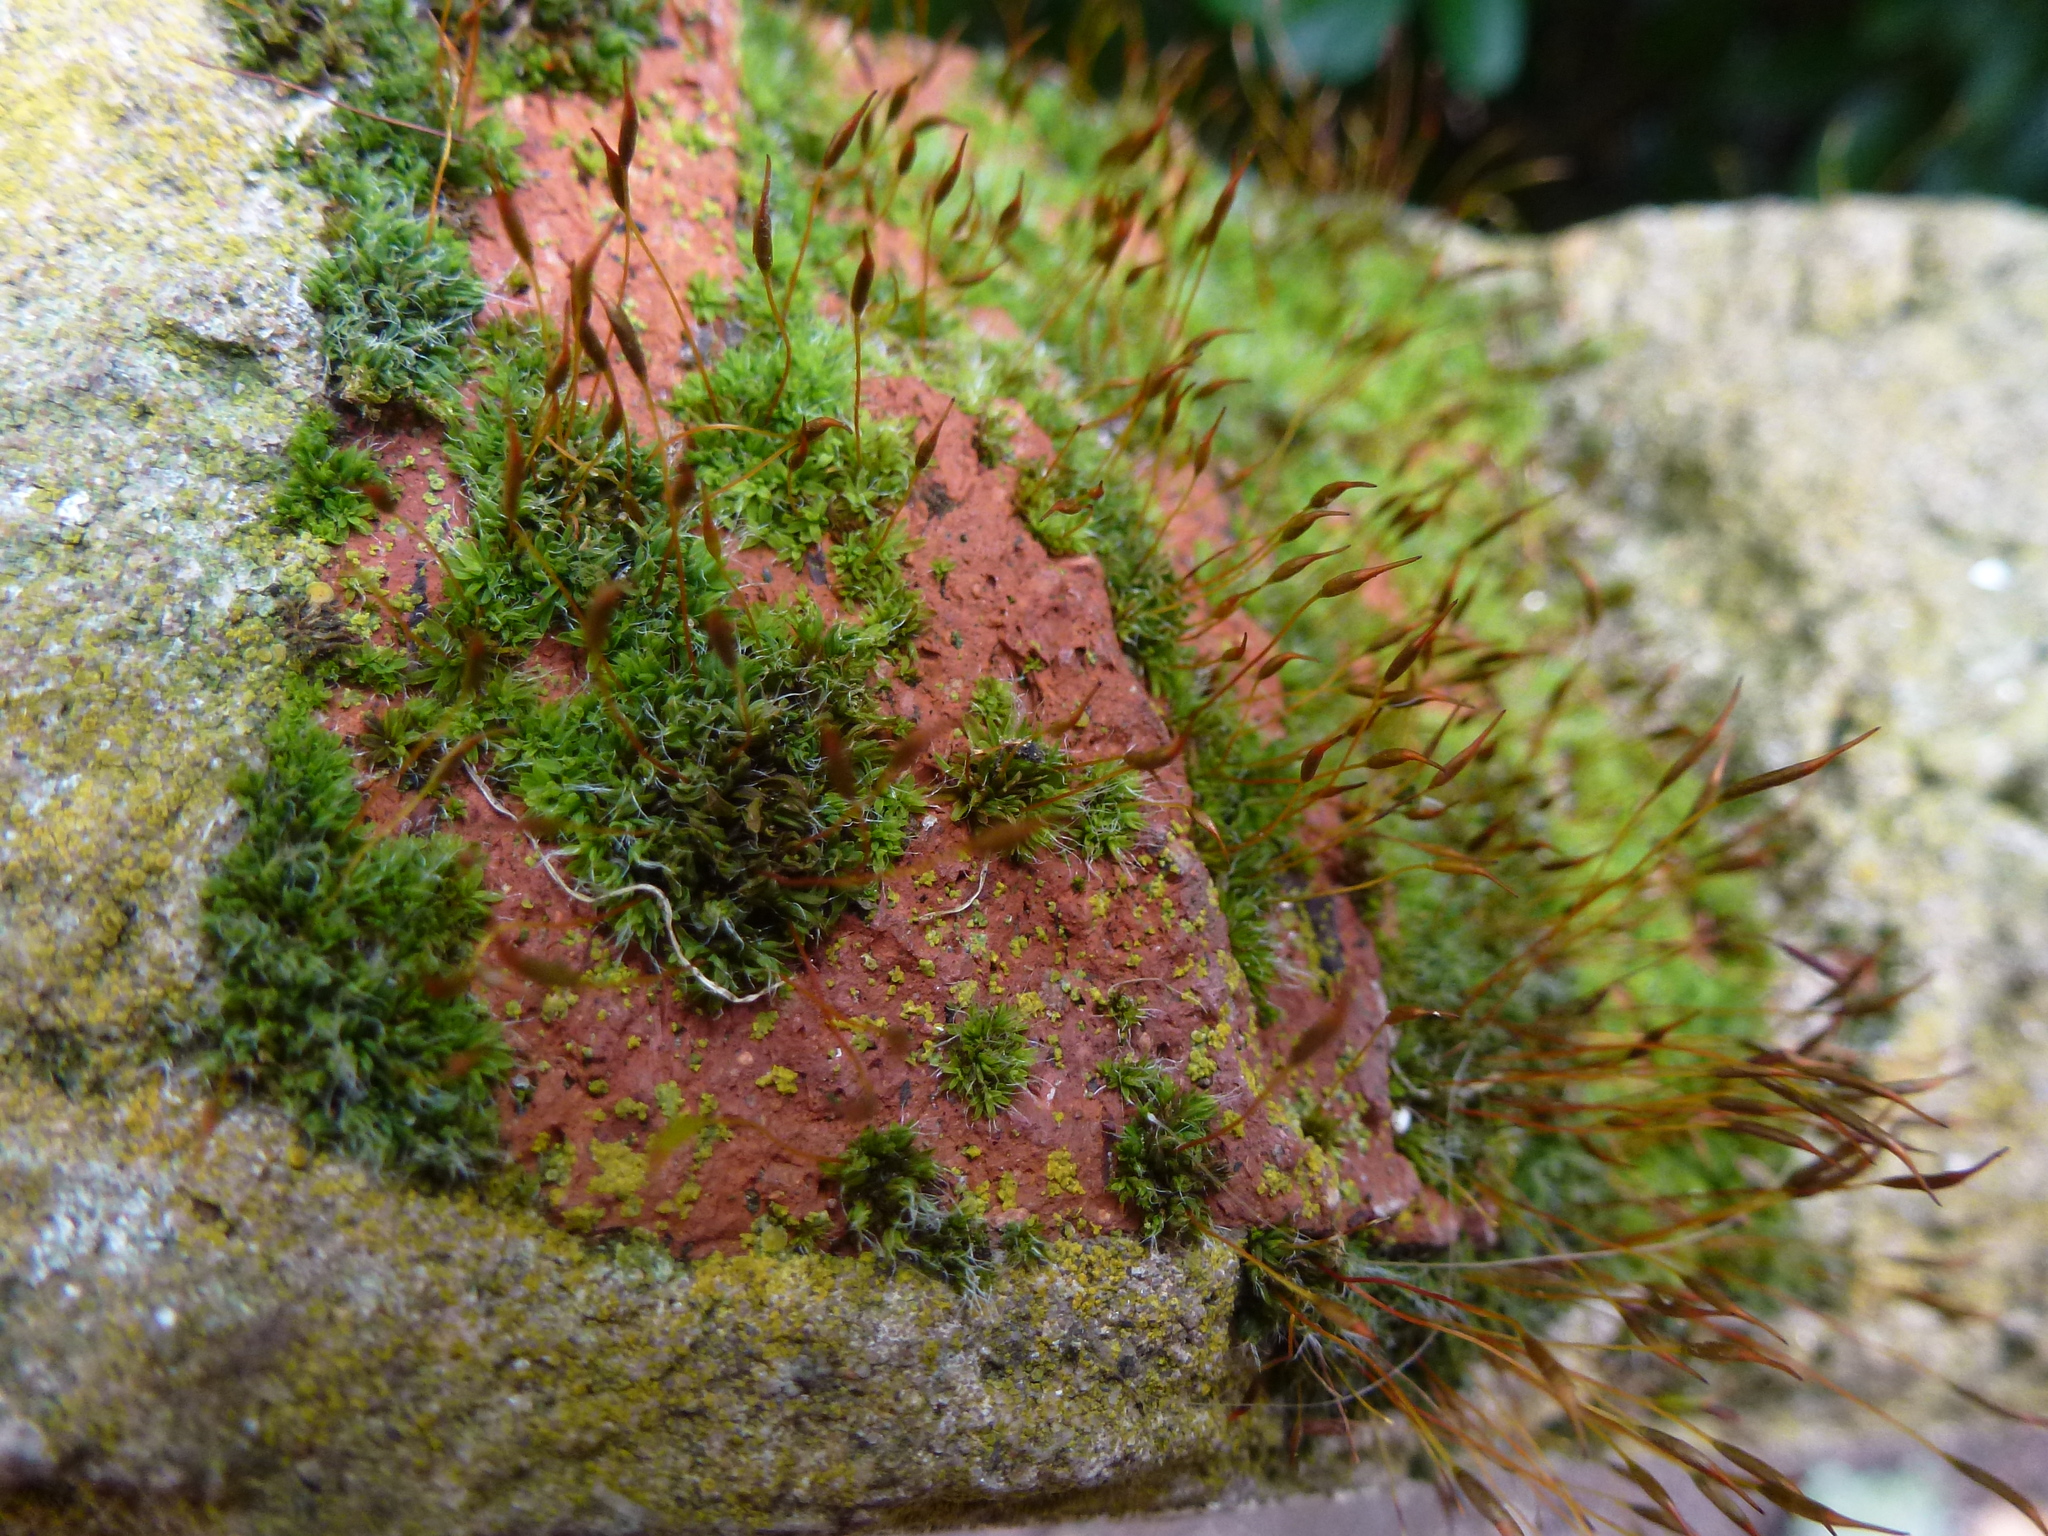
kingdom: Plantae
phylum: Bryophyta
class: Bryopsida
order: Pottiales
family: Pottiaceae
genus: Tortula
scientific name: Tortula muralis
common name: Wall screw-moss
